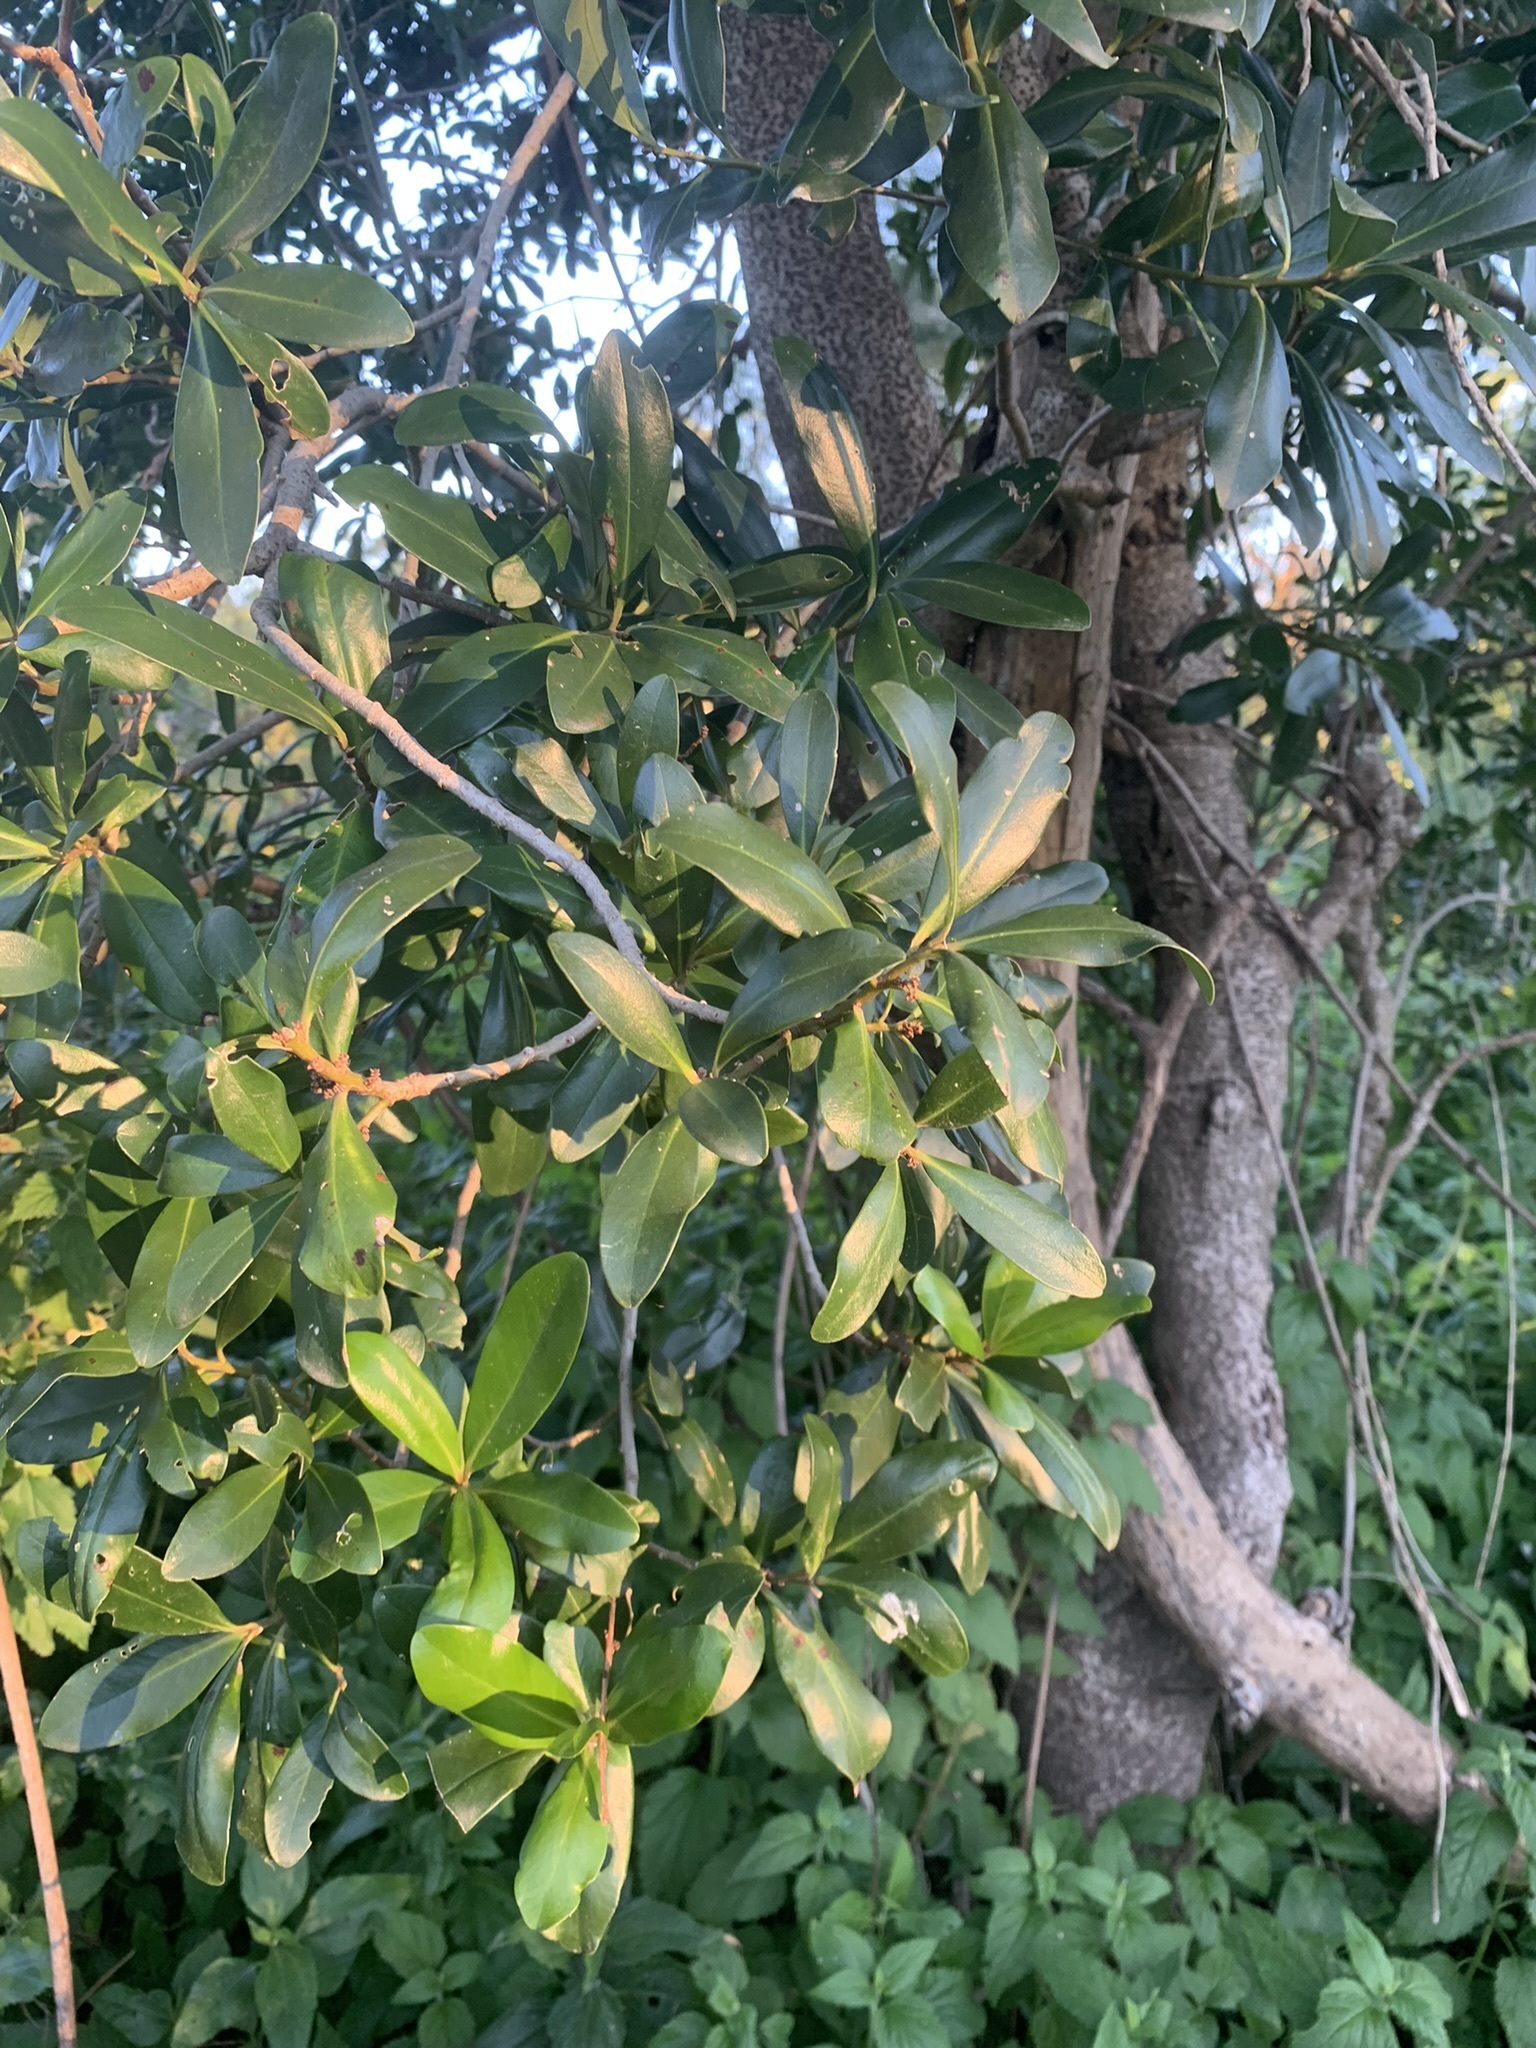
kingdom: Plantae
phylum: Tracheophyta
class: Magnoliopsida
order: Ericales
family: Primulaceae
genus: Myrsine
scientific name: Myrsine laetevirens
